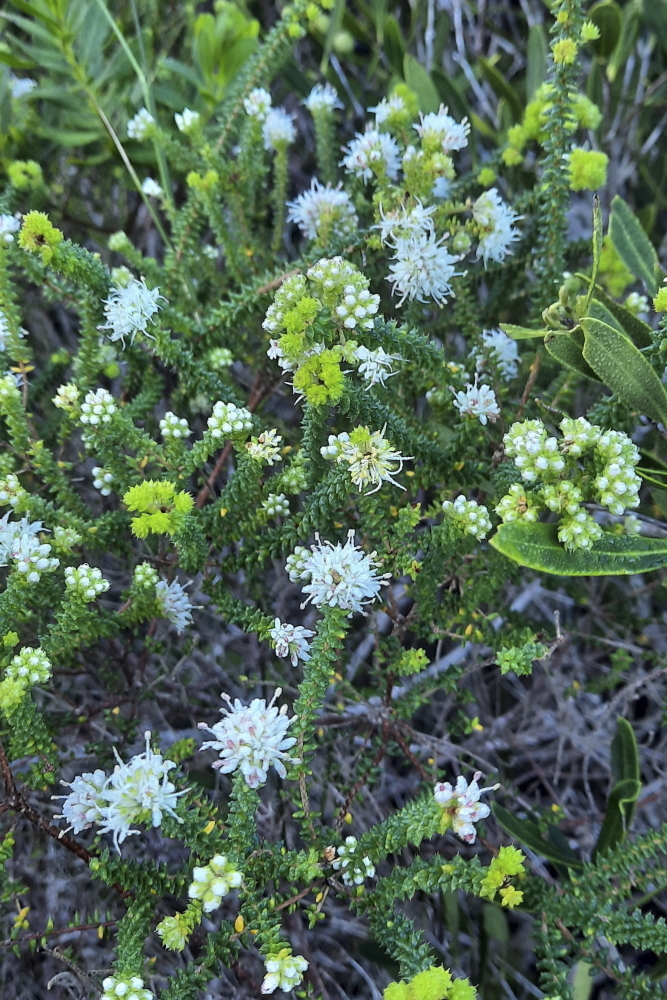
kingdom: Plantae
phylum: Tracheophyta
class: Magnoliopsida
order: Sapindales
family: Rutaceae
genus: Agathosma
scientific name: Agathosma apiculata
